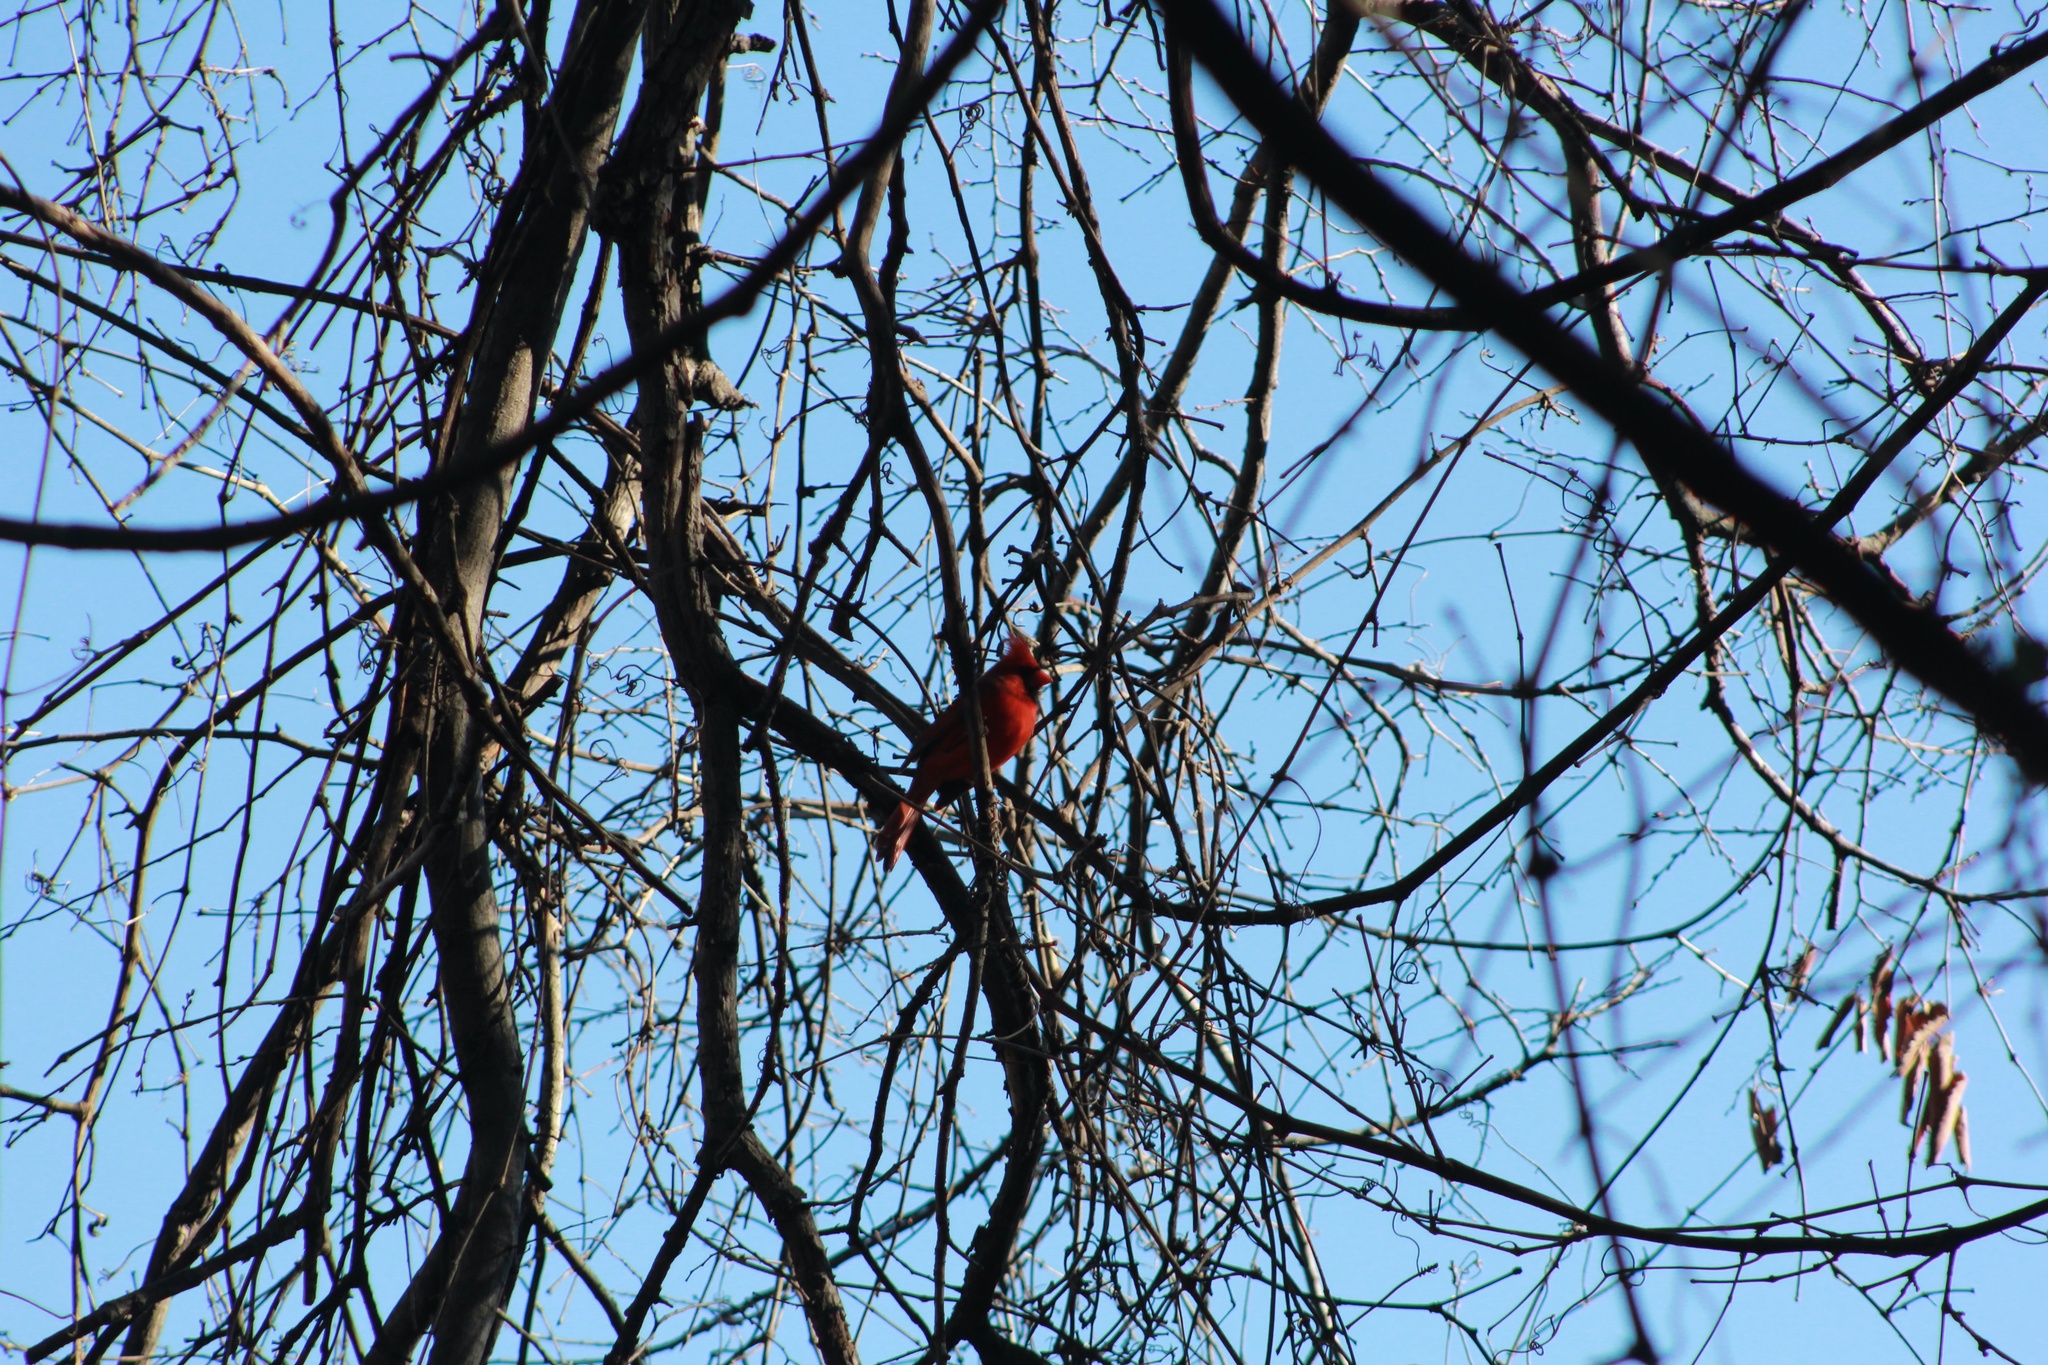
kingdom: Animalia
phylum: Chordata
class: Aves
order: Passeriformes
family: Cardinalidae
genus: Cardinalis
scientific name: Cardinalis cardinalis
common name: Northern cardinal
